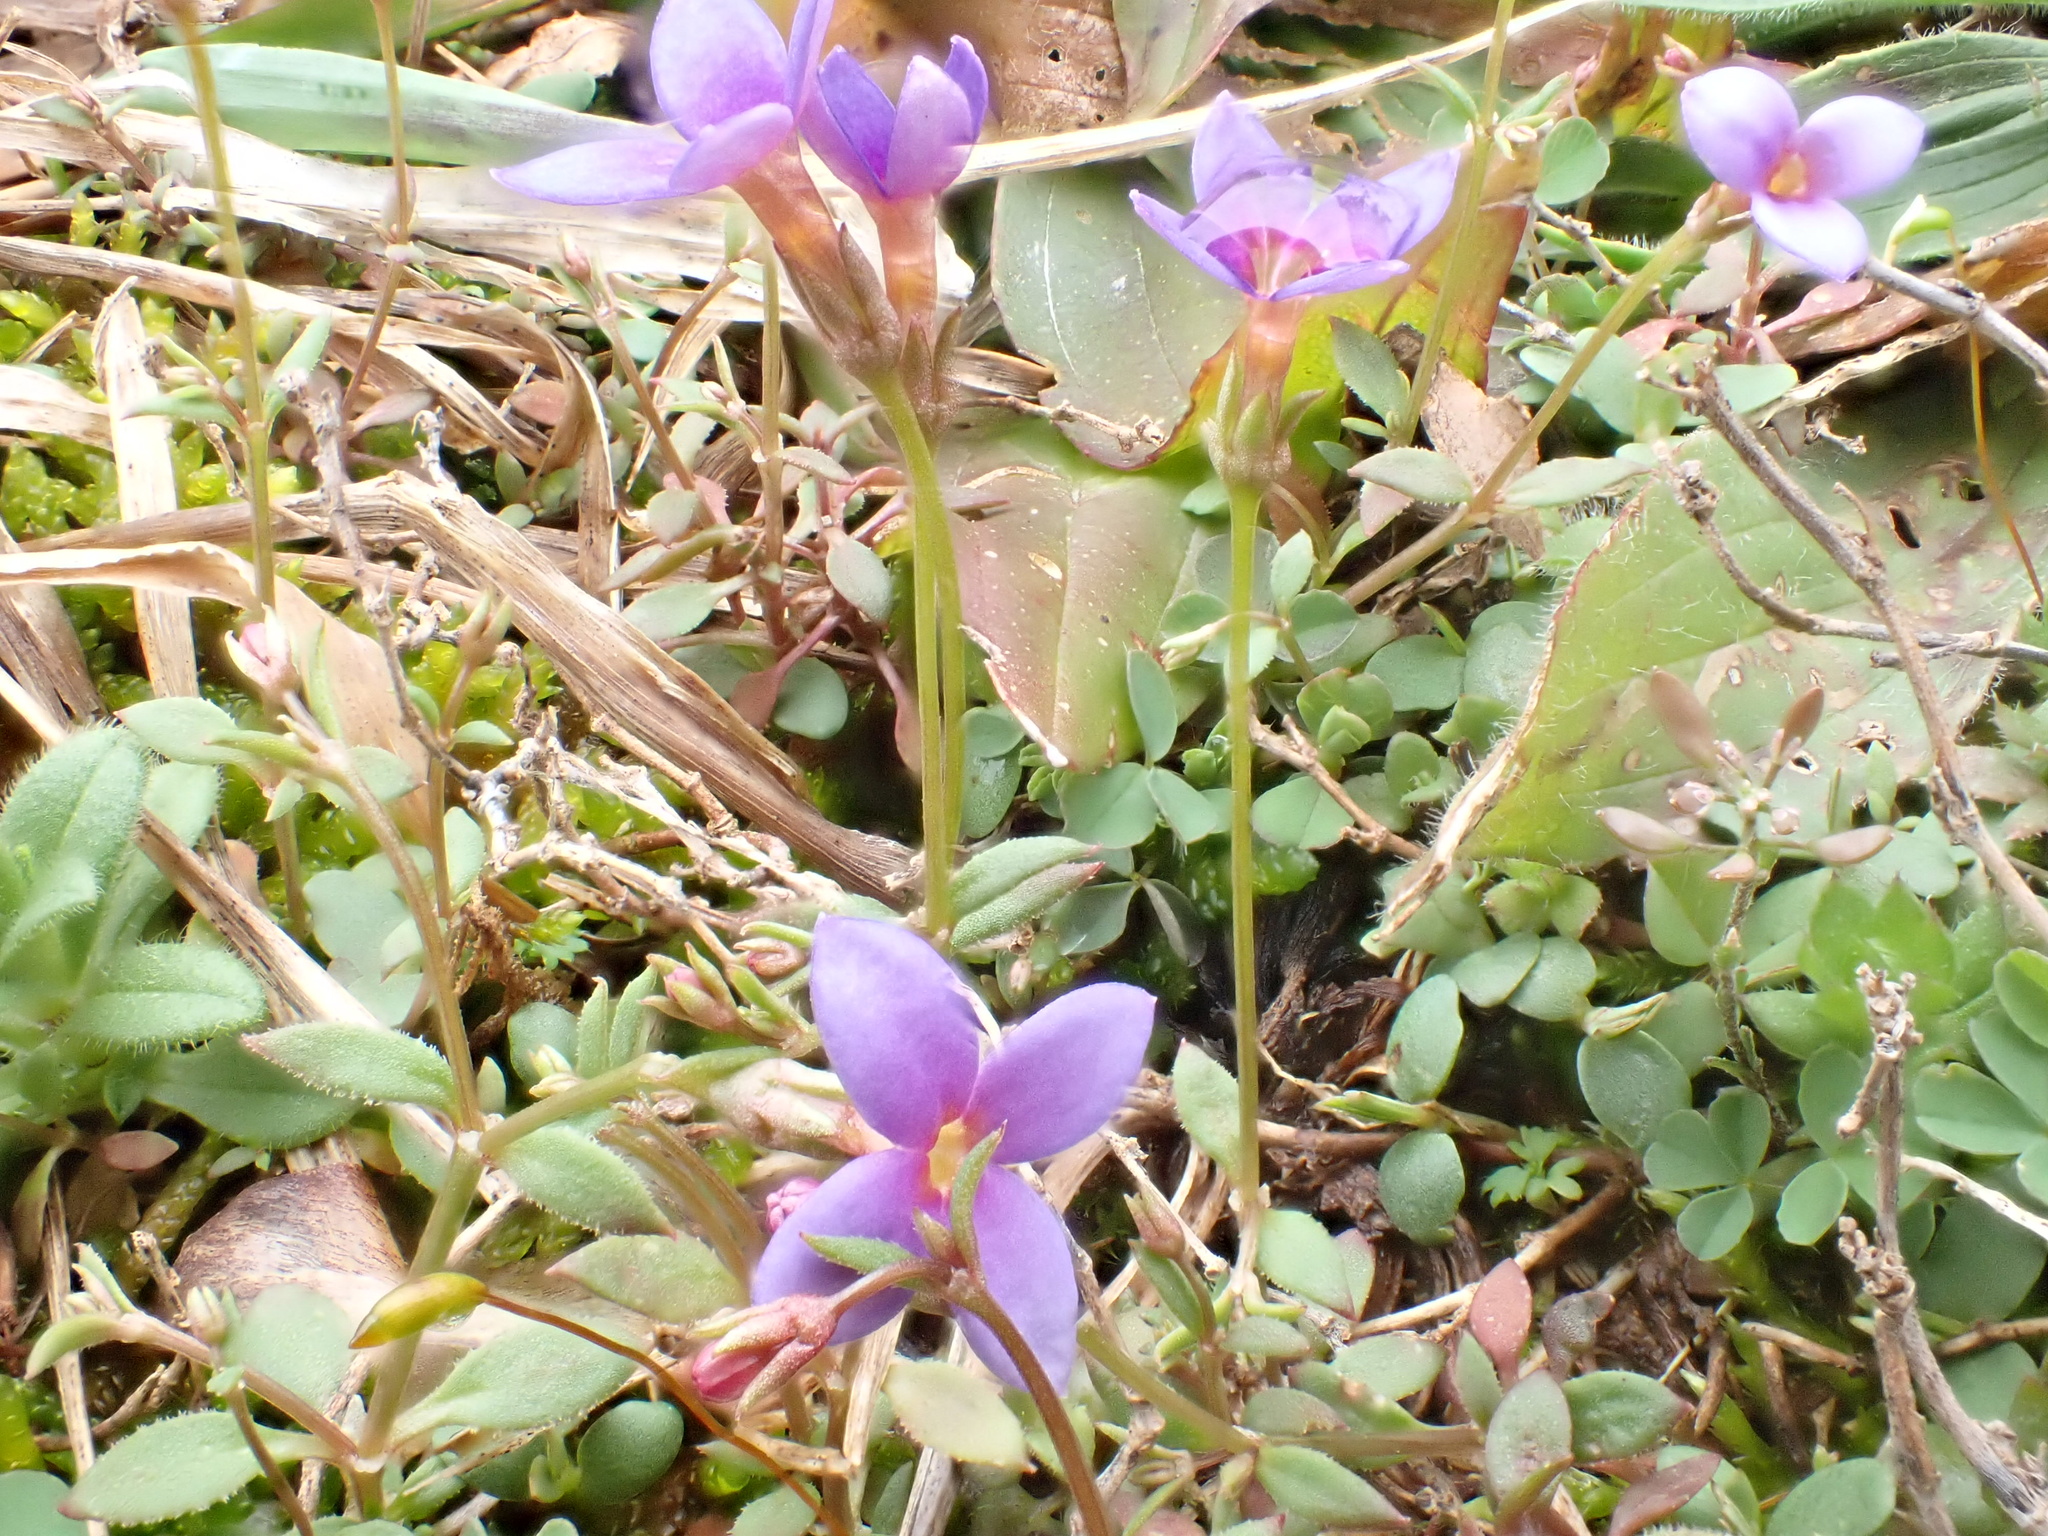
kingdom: Plantae
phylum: Tracheophyta
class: Magnoliopsida
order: Gentianales
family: Rubiaceae
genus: Houstonia
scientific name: Houstonia pusilla
